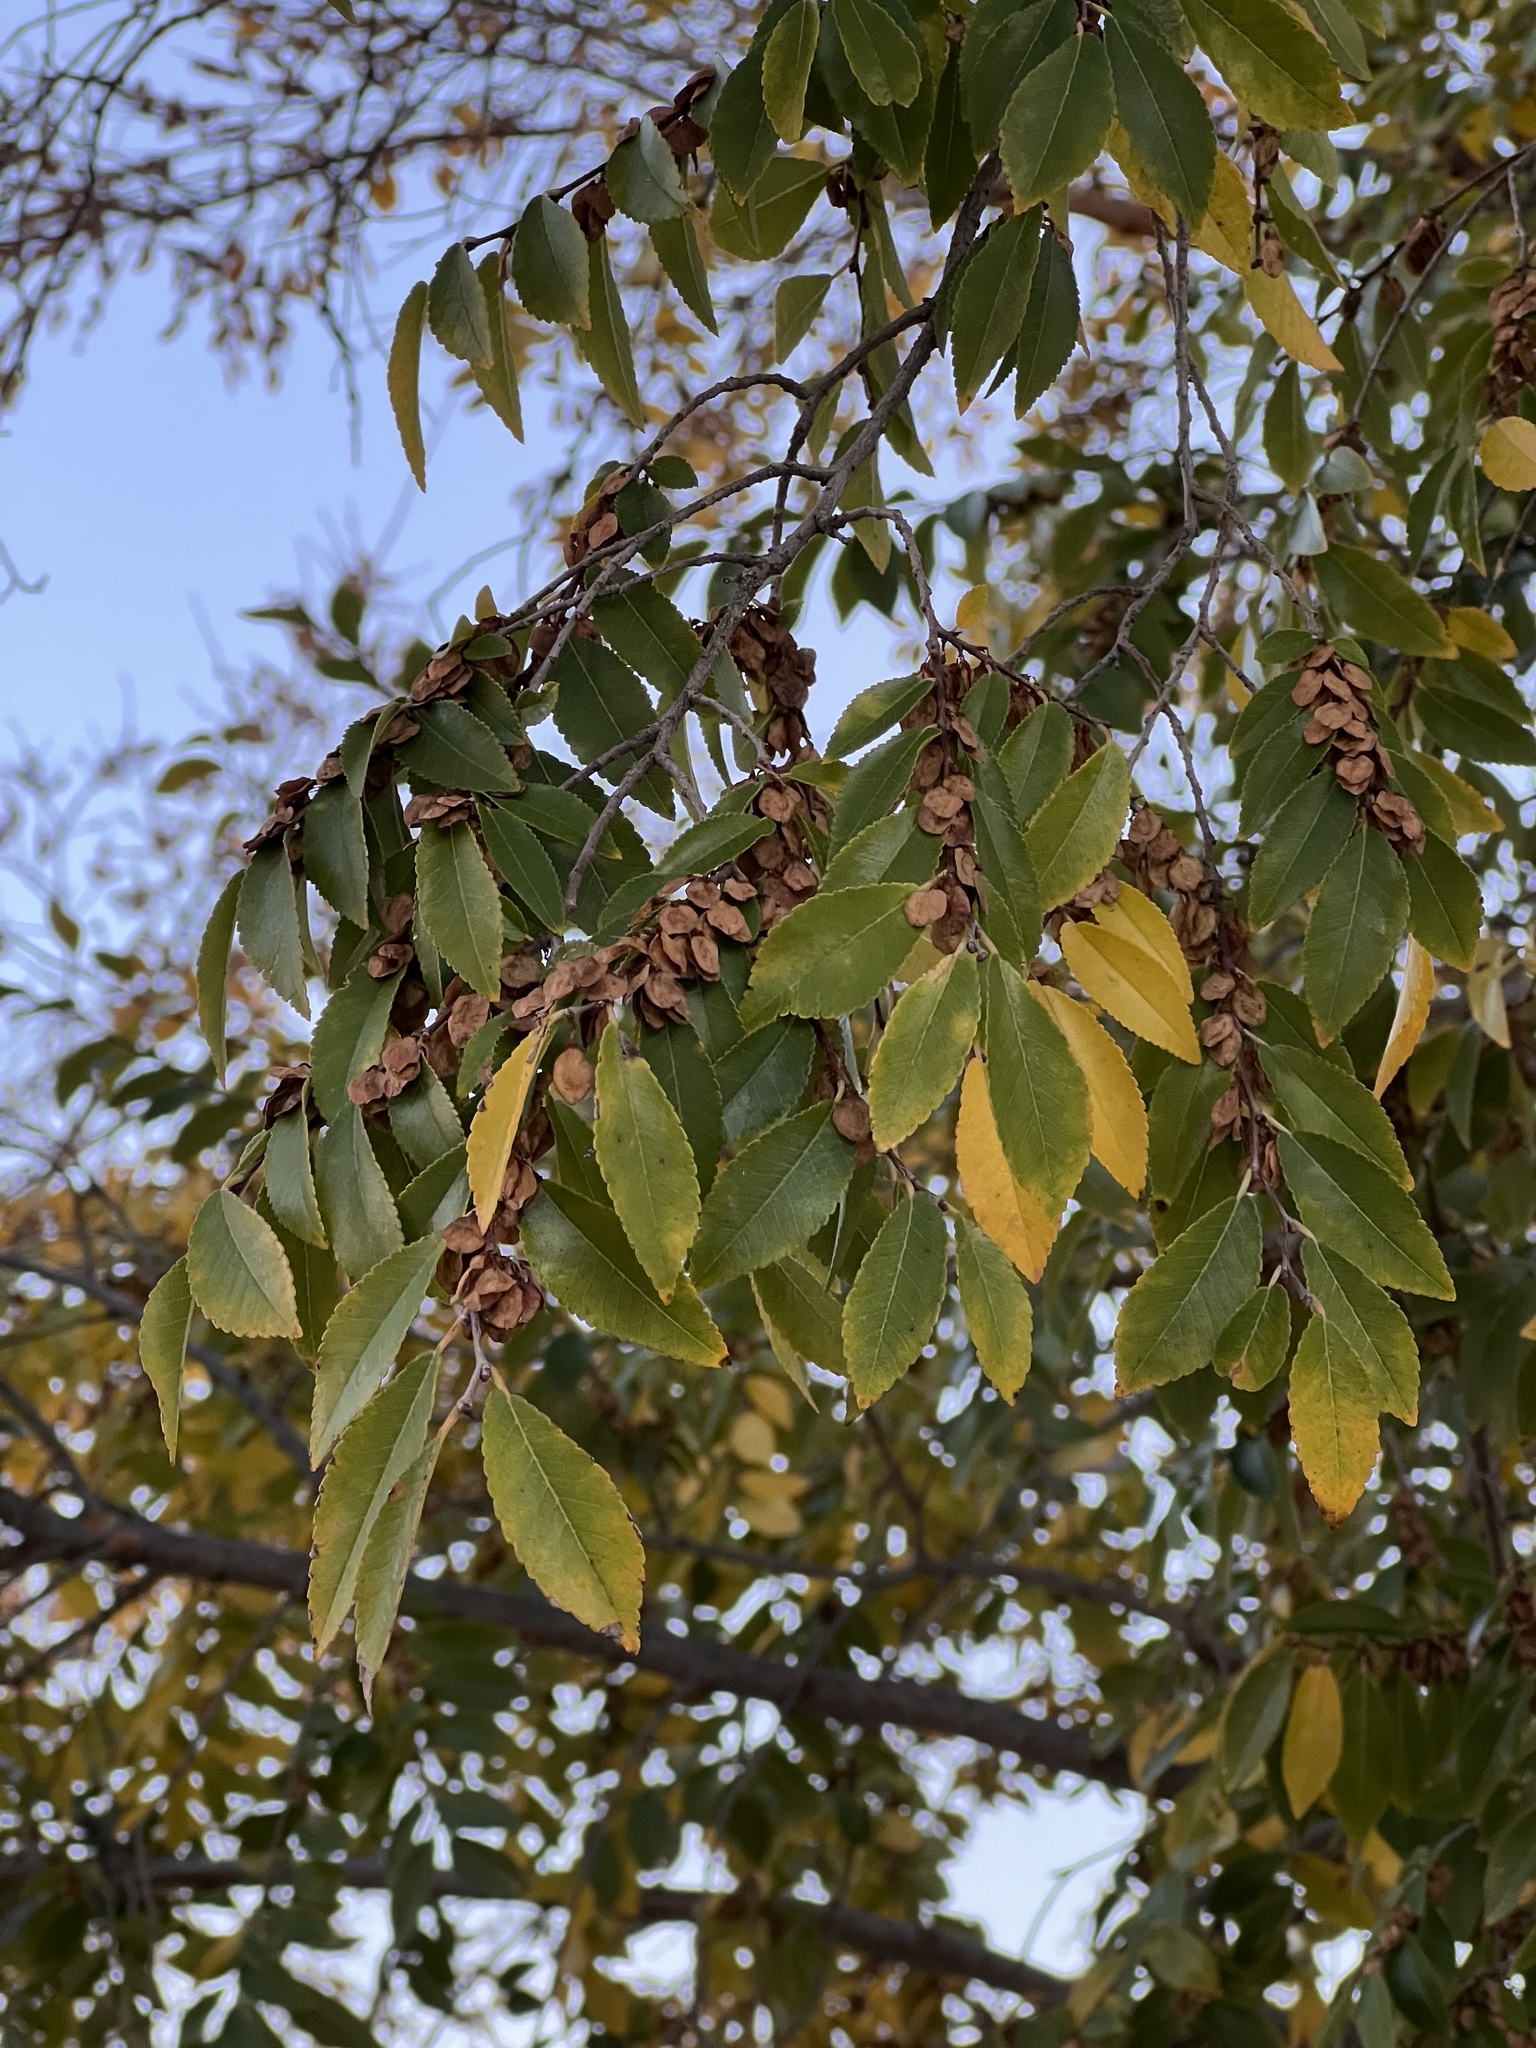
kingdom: Plantae
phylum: Tracheophyta
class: Magnoliopsida
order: Rosales
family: Ulmaceae
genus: Ulmus
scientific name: Ulmus parvifolia
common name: Chinese elm
